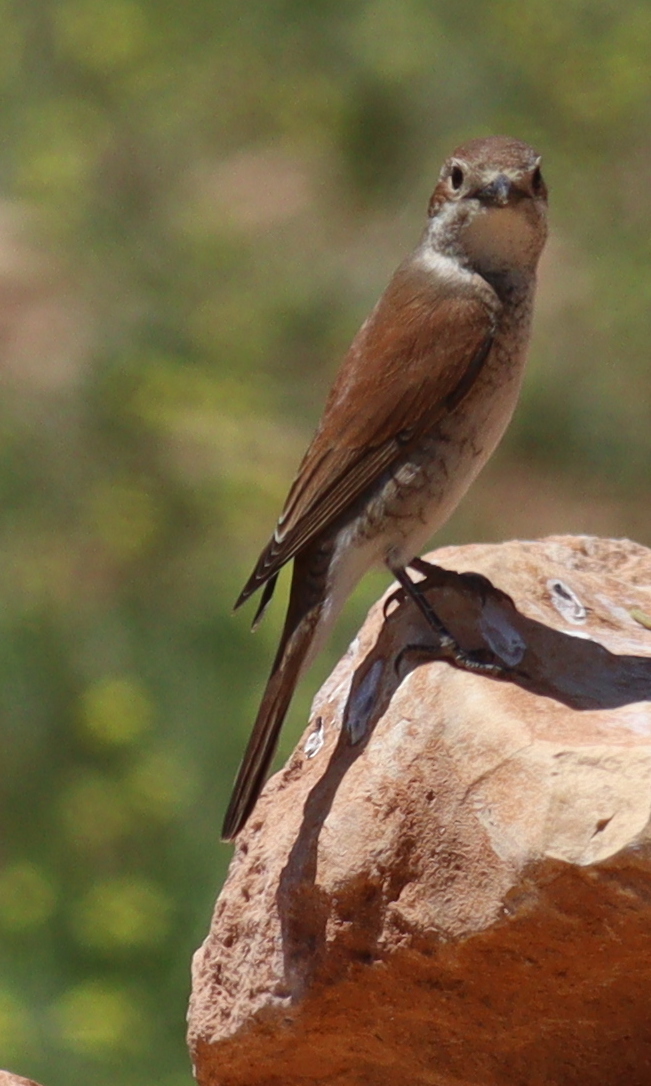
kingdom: Animalia
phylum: Chordata
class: Aves
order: Passeriformes
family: Laniidae
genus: Lanius
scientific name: Lanius collurio
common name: Red-backed shrike
